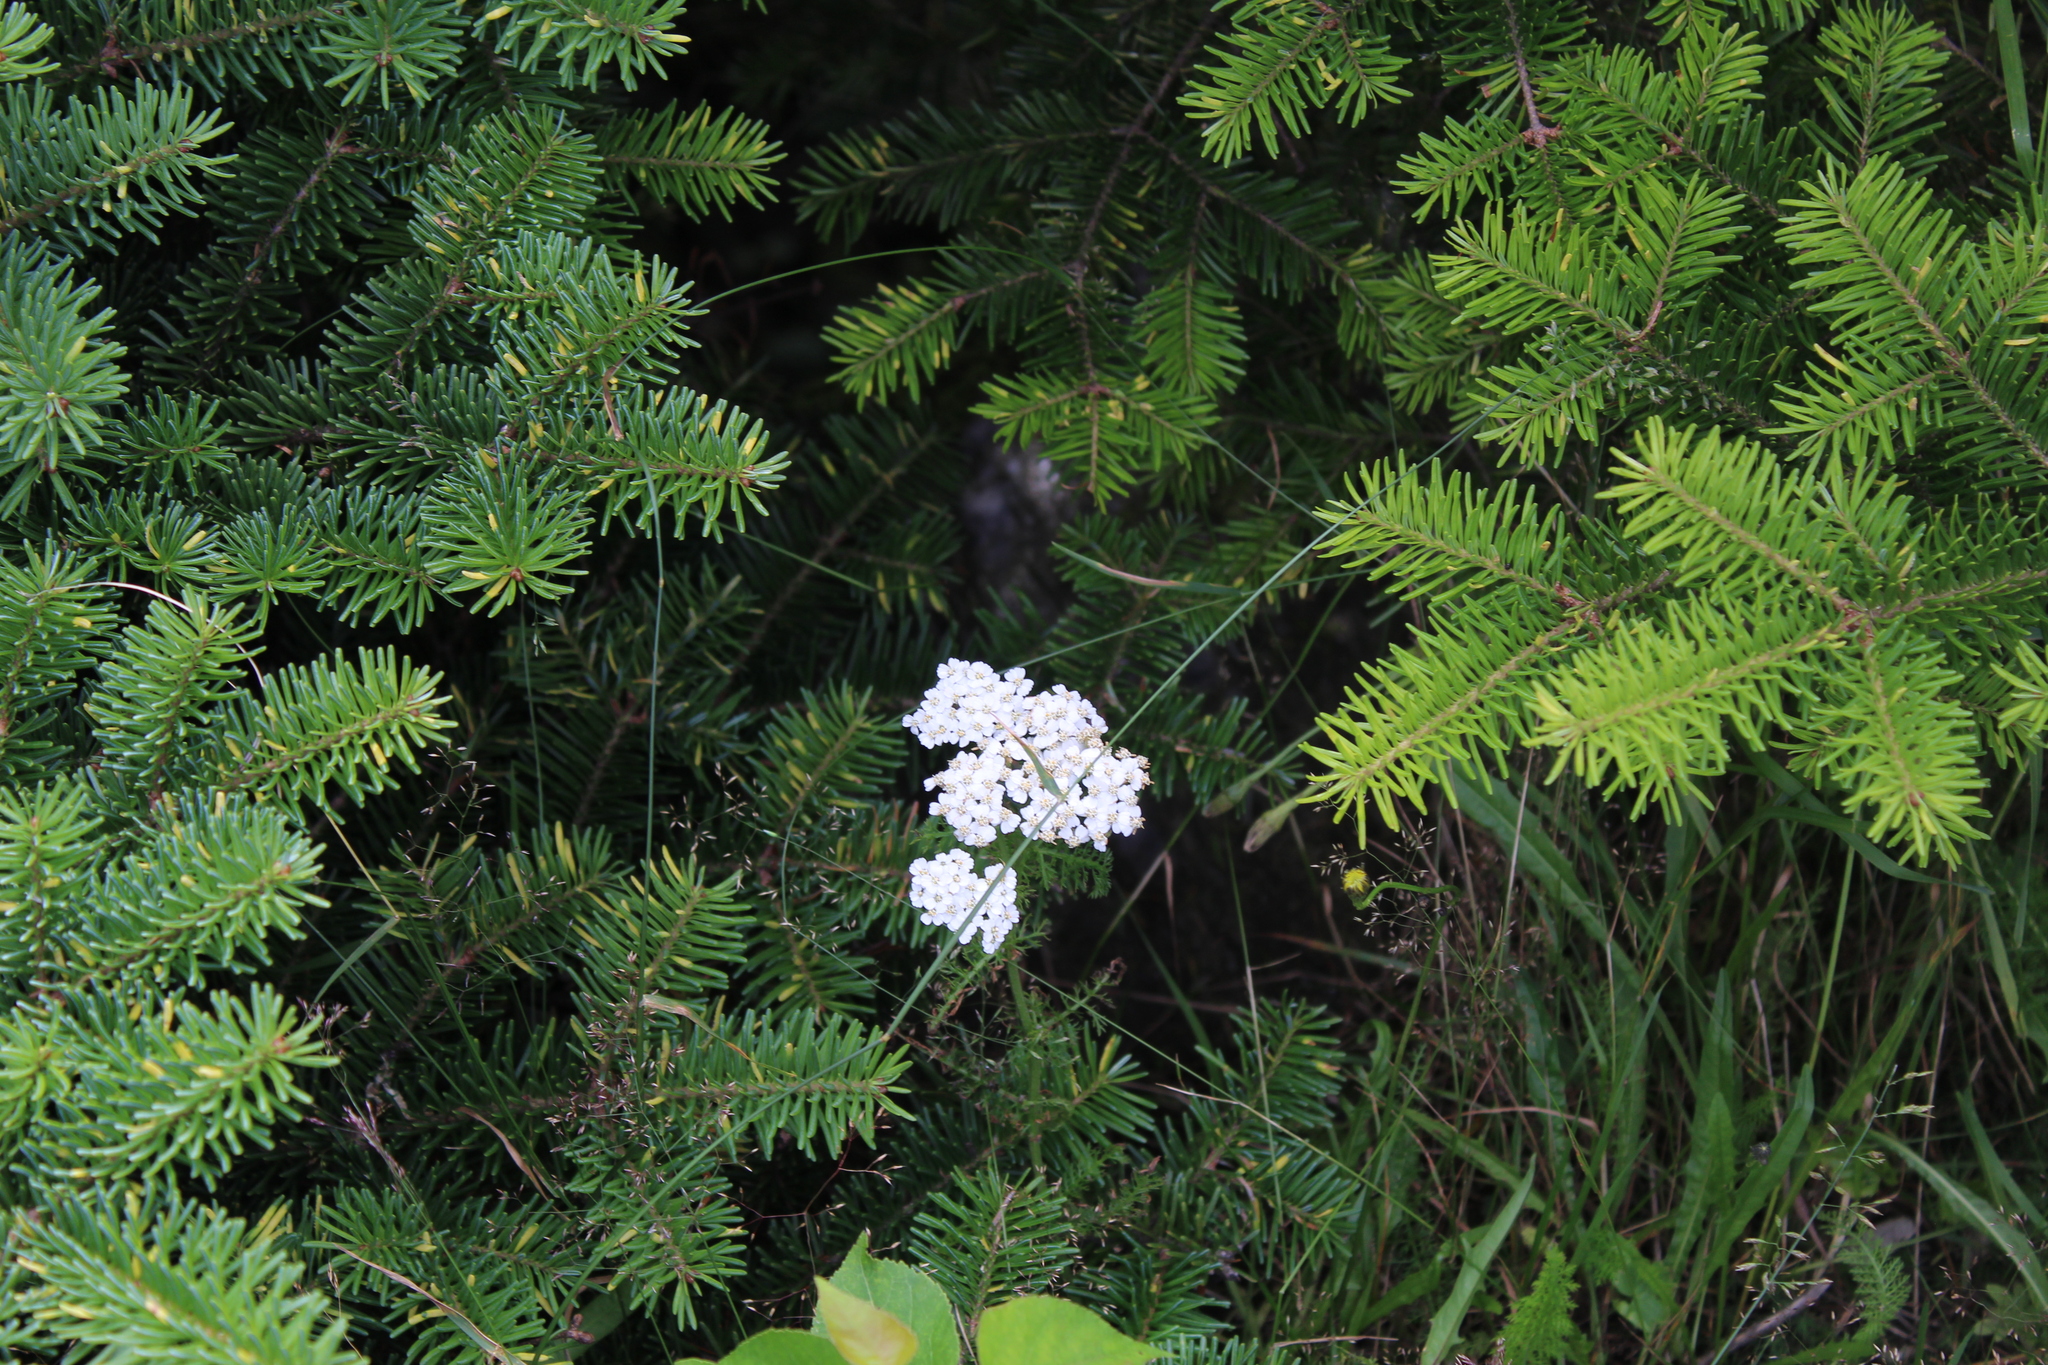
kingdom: Plantae
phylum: Tracheophyta
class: Magnoliopsida
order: Asterales
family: Asteraceae
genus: Achillea
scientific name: Achillea millefolium
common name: Yarrow
